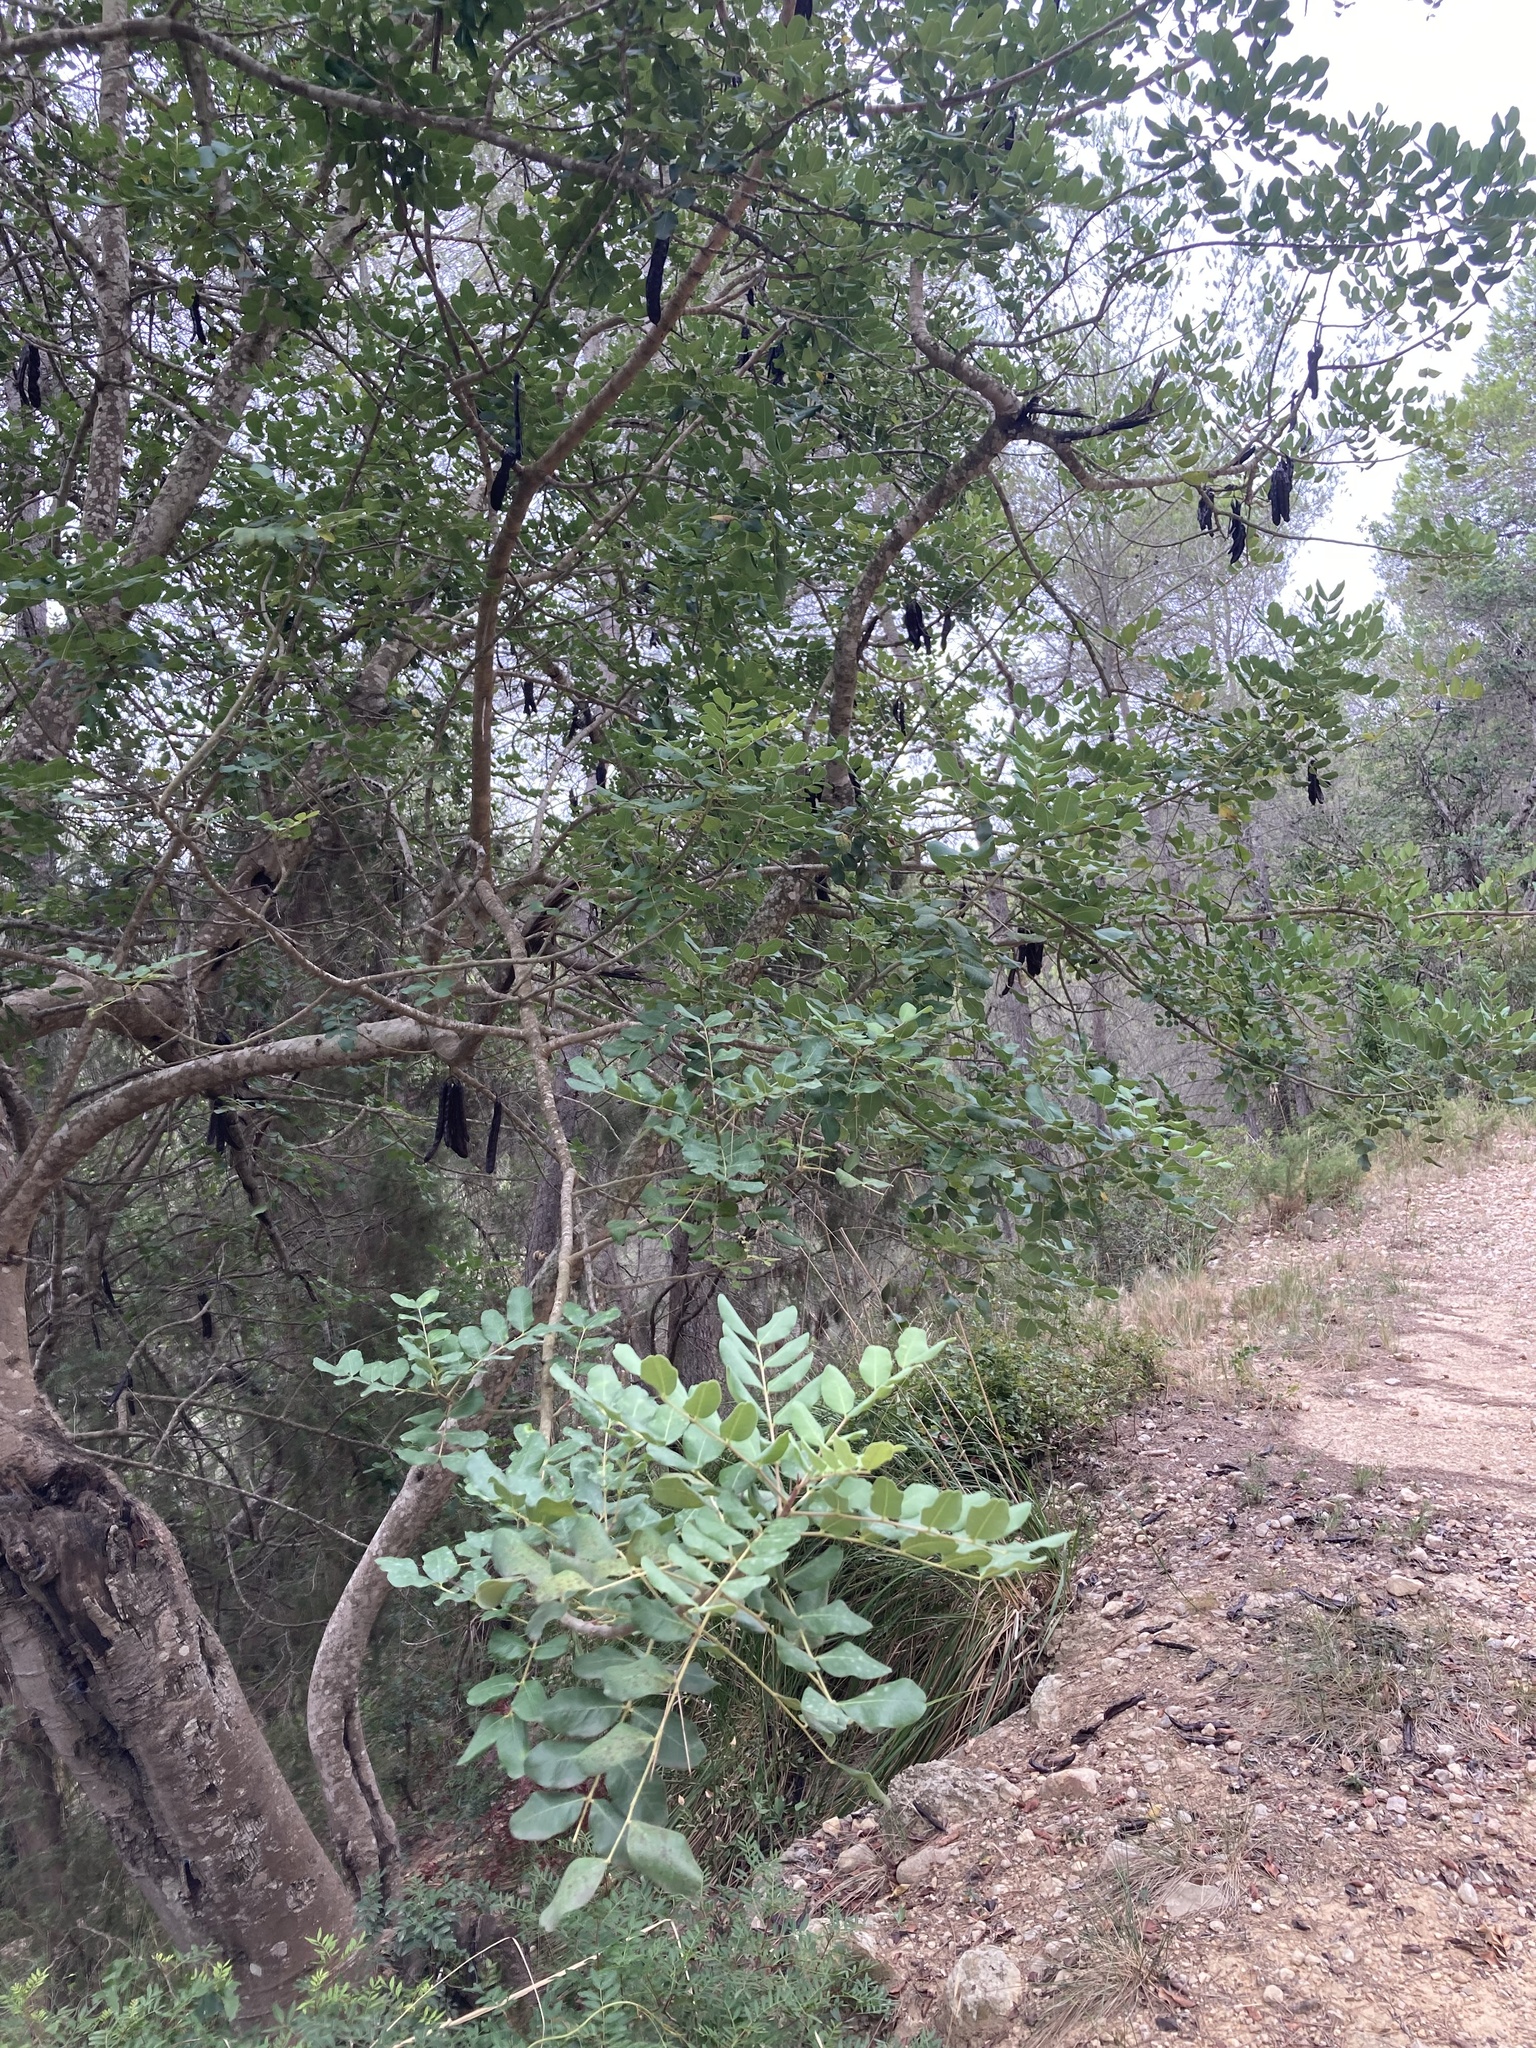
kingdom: Plantae
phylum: Tracheophyta
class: Magnoliopsida
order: Fabales
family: Fabaceae
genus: Ceratonia
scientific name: Ceratonia siliqua
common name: Carob
